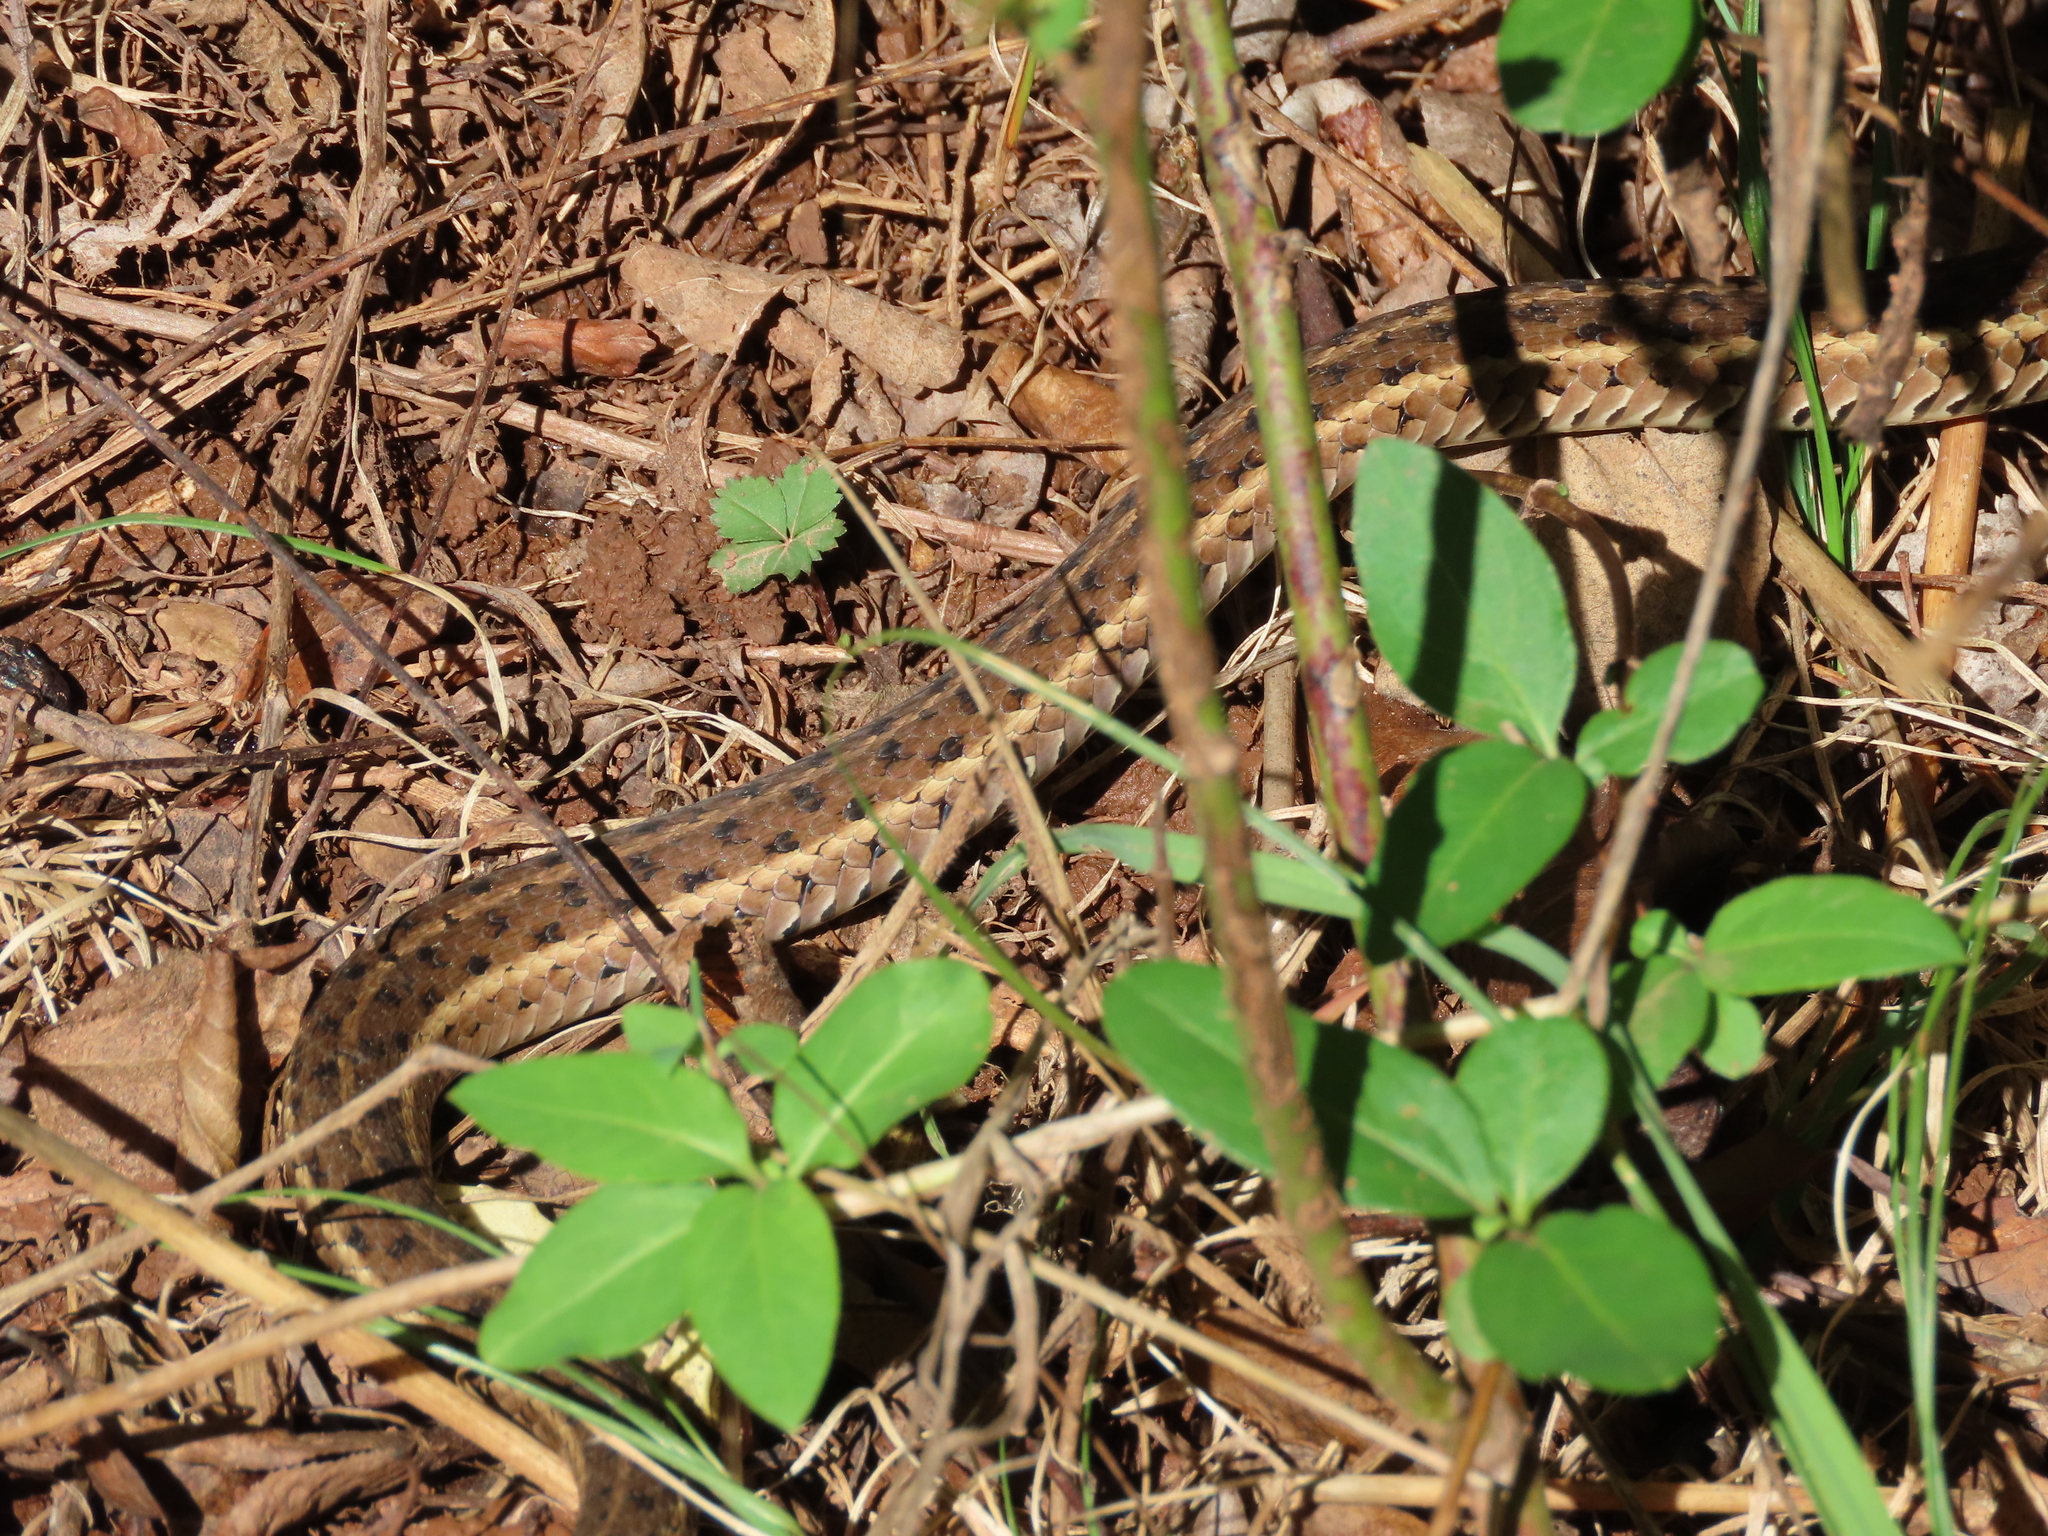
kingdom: Animalia
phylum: Chordata
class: Squamata
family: Colubridae
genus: Thamnophis
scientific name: Thamnophis sirtalis
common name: Common garter snake
